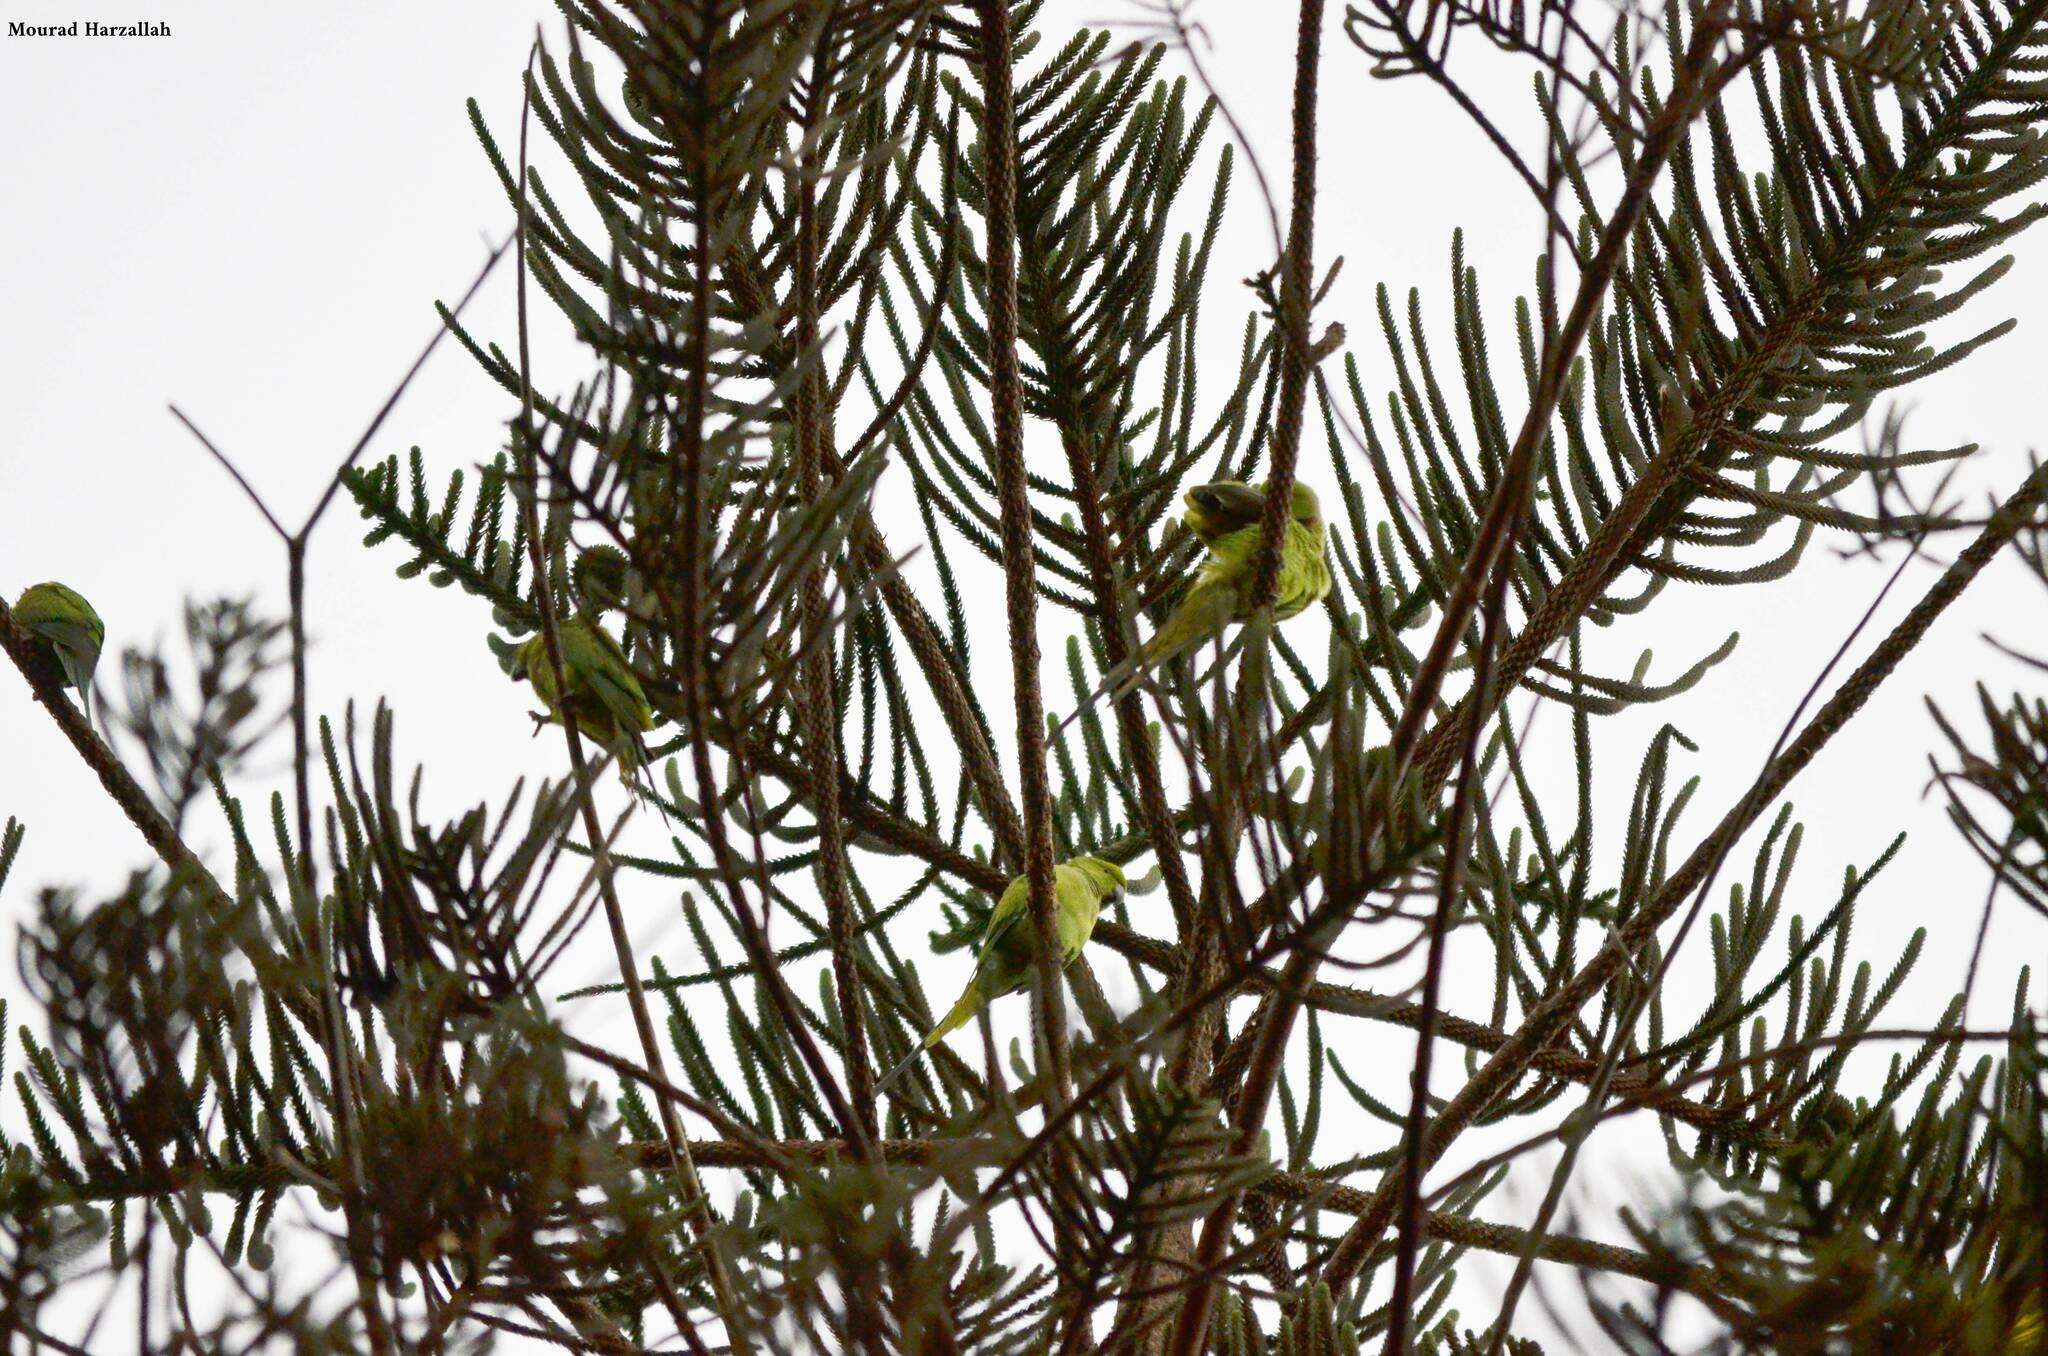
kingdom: Animalia
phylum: Chordata
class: Aves
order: Psittaciformes
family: Psittacidae
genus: Psittacula
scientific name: Psittacula krameri
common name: Rose-ringed parakeet
